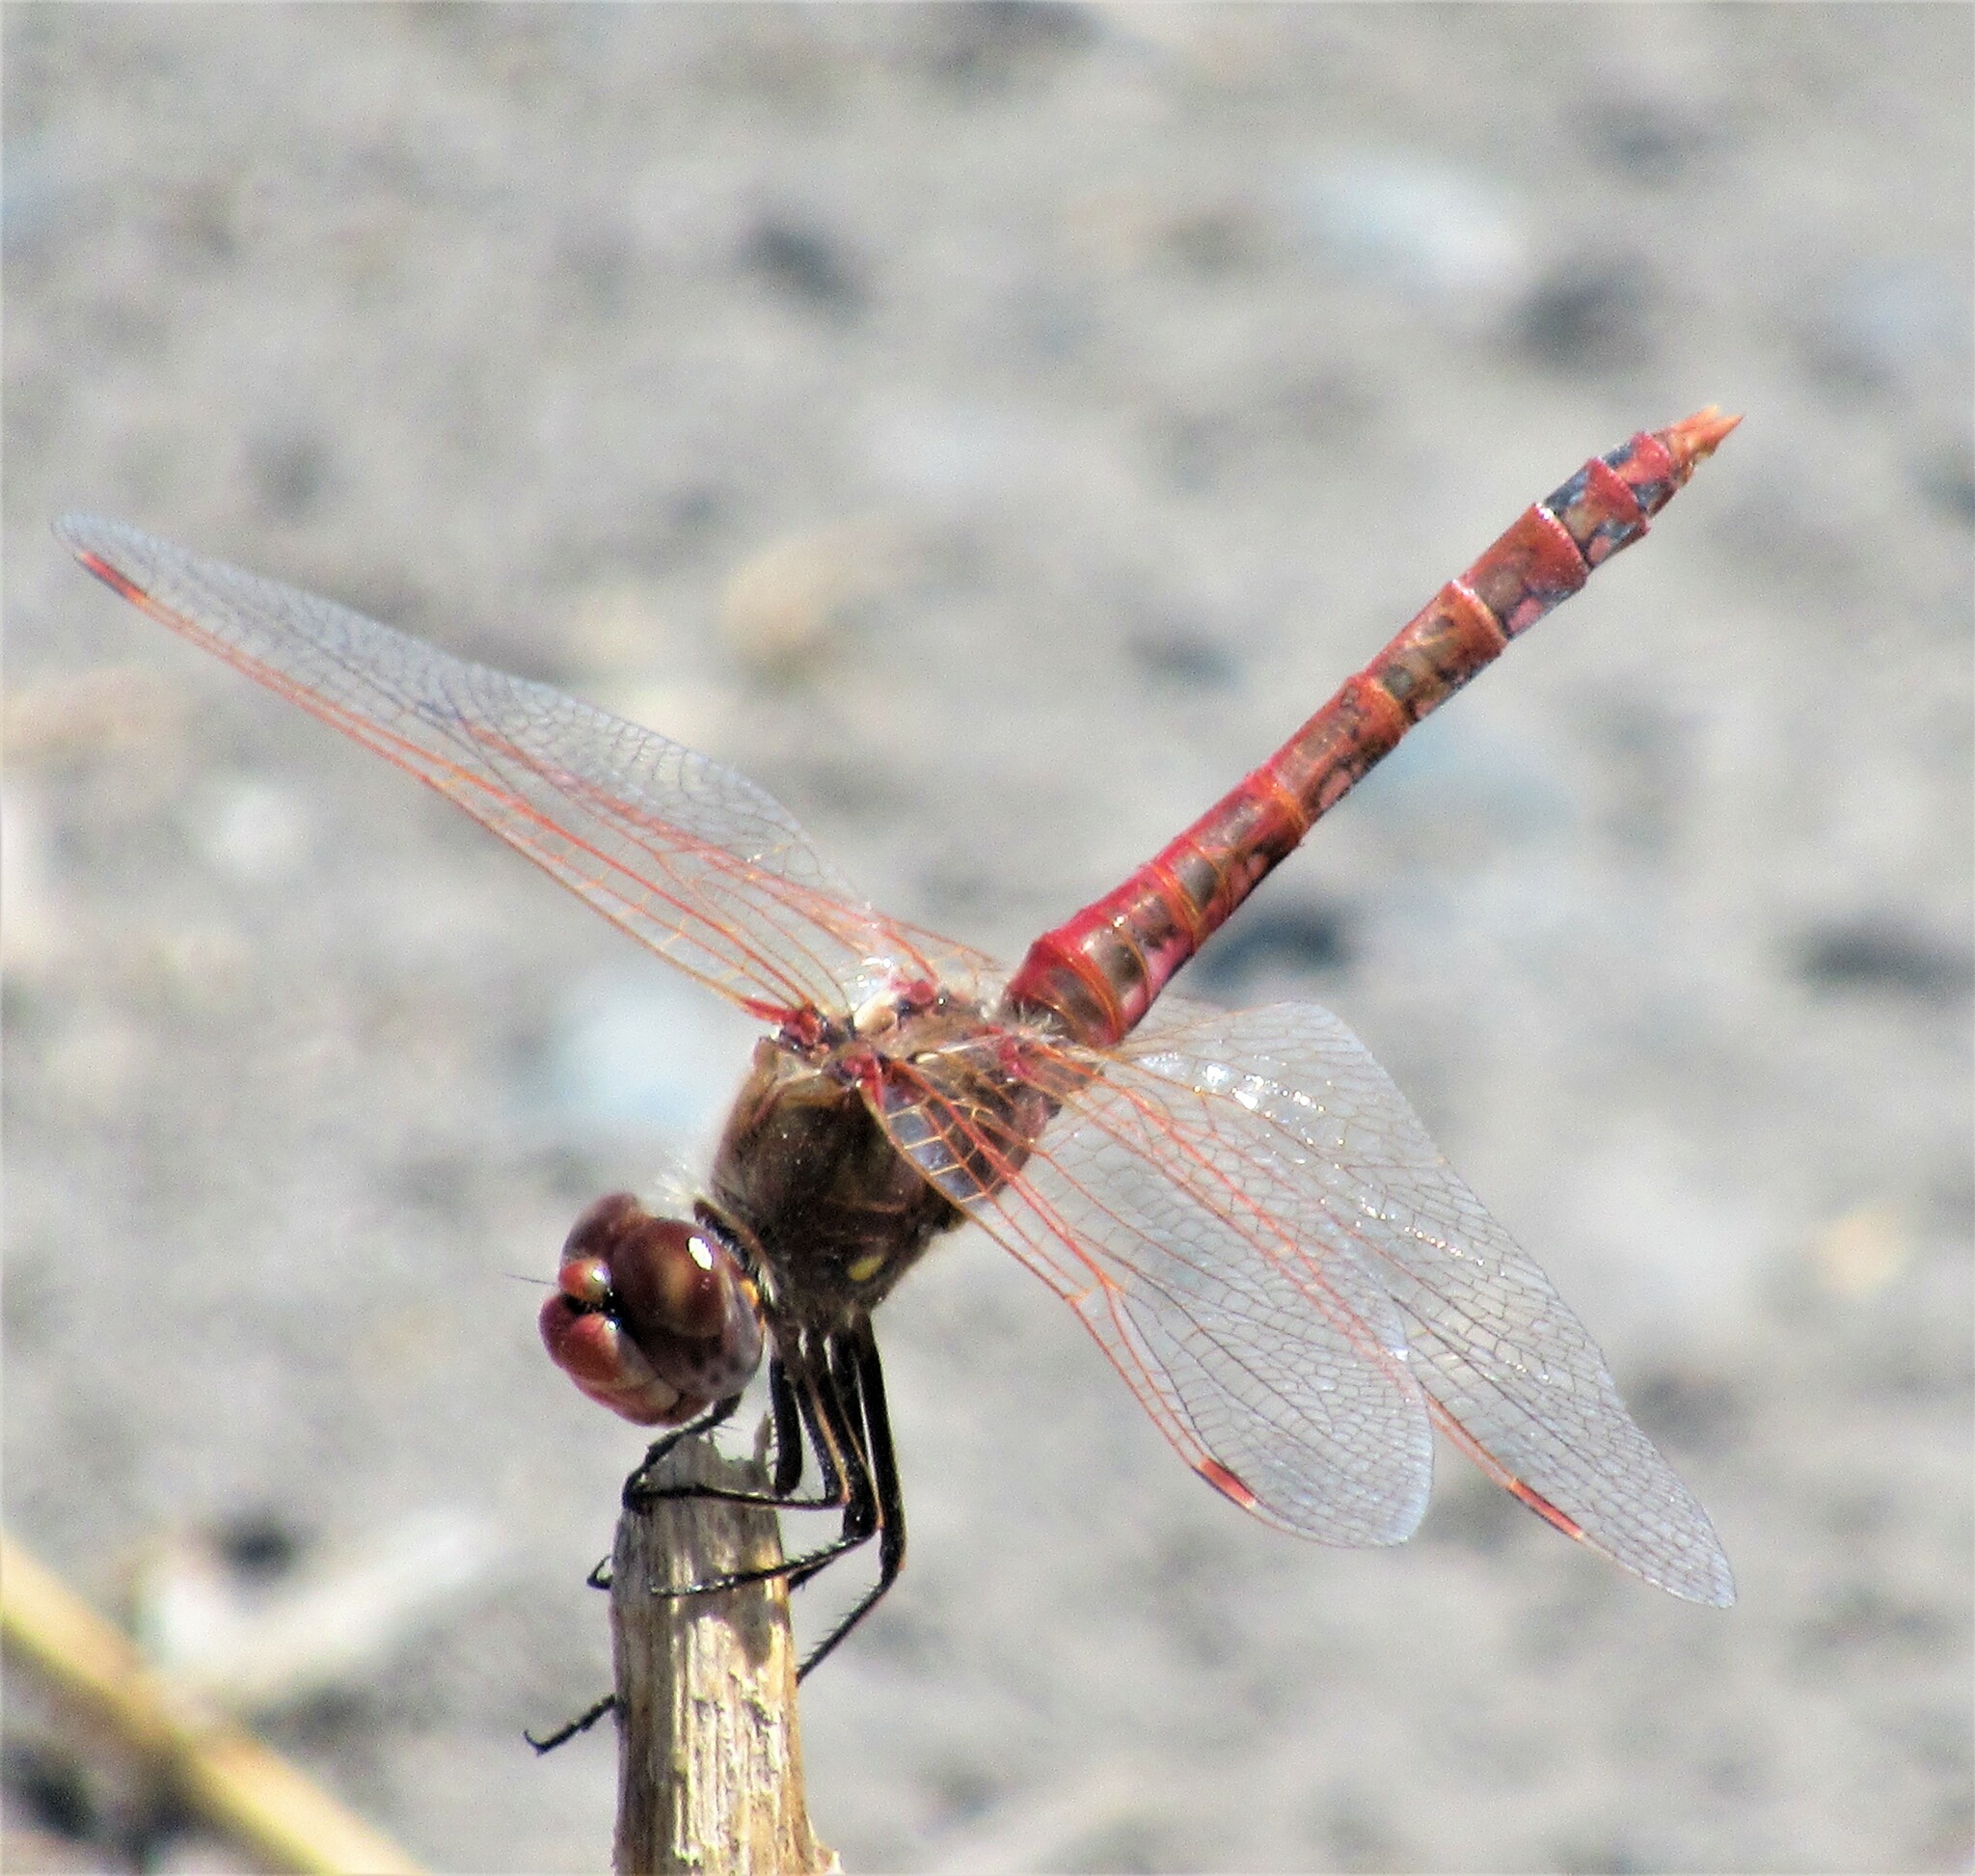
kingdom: Animalia
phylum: Arthropoda
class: Insecta
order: Odonata
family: Libellulidae
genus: Sympetrum
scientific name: Sympetrum corruptum
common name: Variegated meadowhawk
